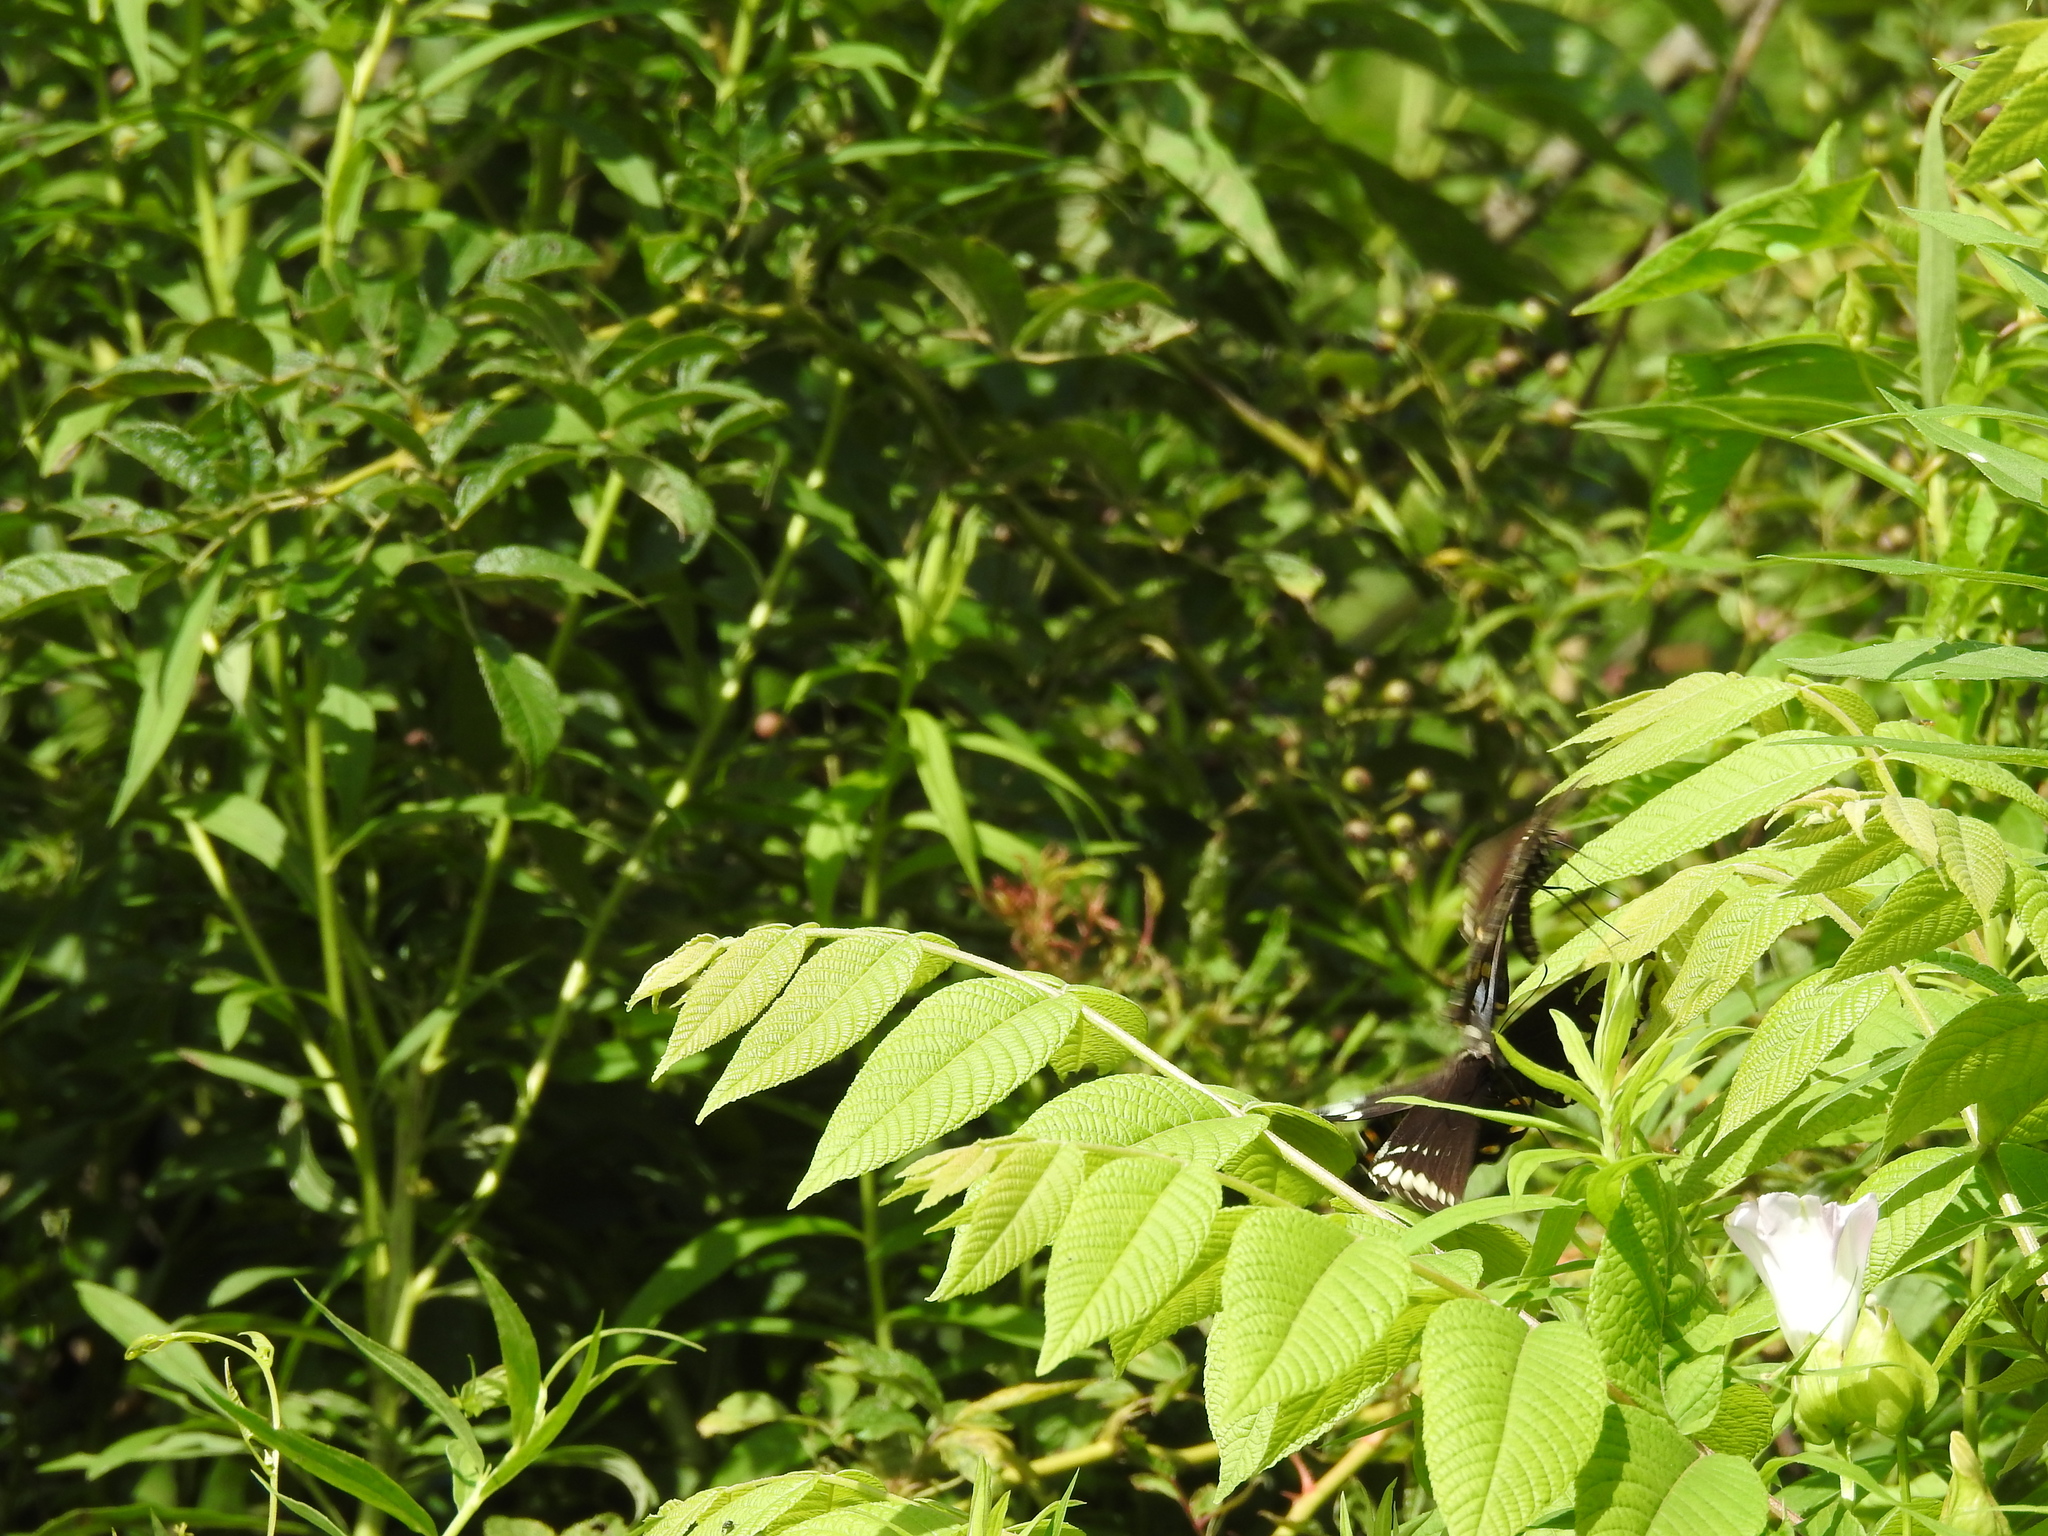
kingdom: Animalia
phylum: Arthropoda
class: Insecta
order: Lepidoptera
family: Papilionidae
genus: Papilio
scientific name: Papilio troilus
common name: Spicebush swallowtail
